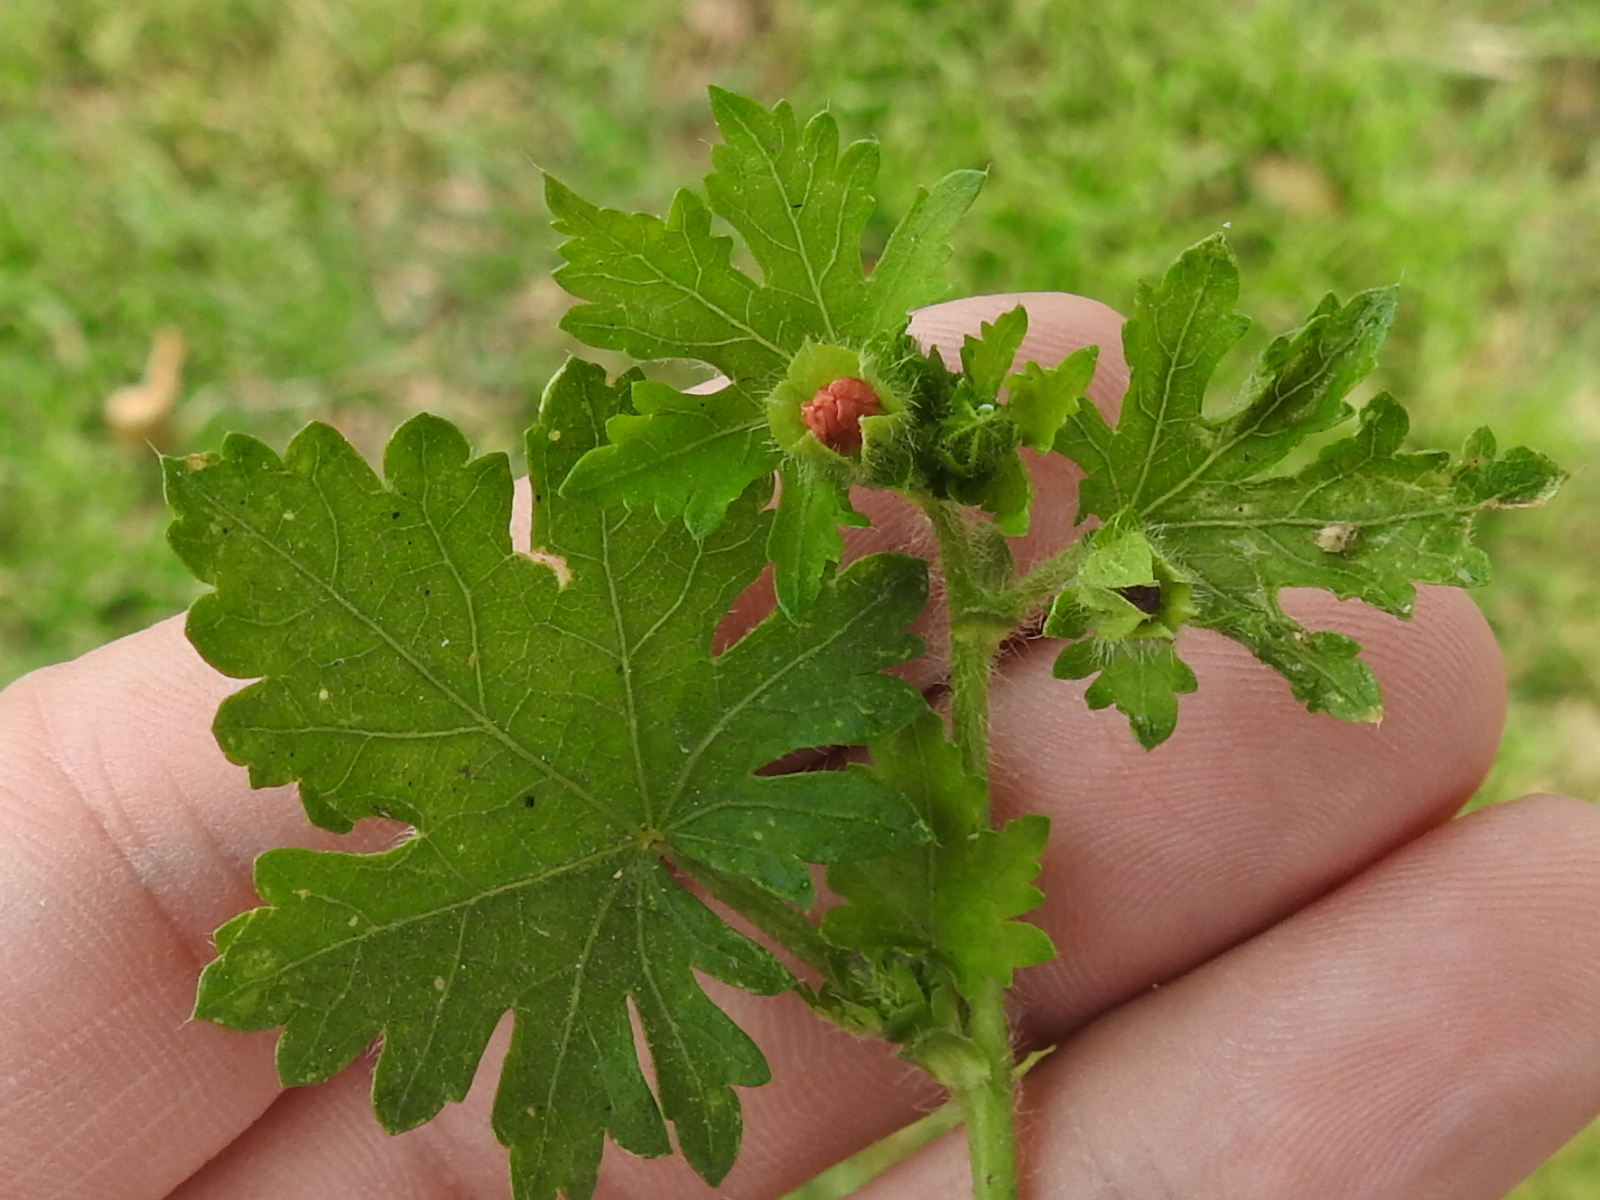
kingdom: Plantae
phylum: Tracheophyta
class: Magnoliopsida
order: Malvales
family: Malvaceae
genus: Modiola
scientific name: Modiola caroliniana
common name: Carolina bristlemallow
